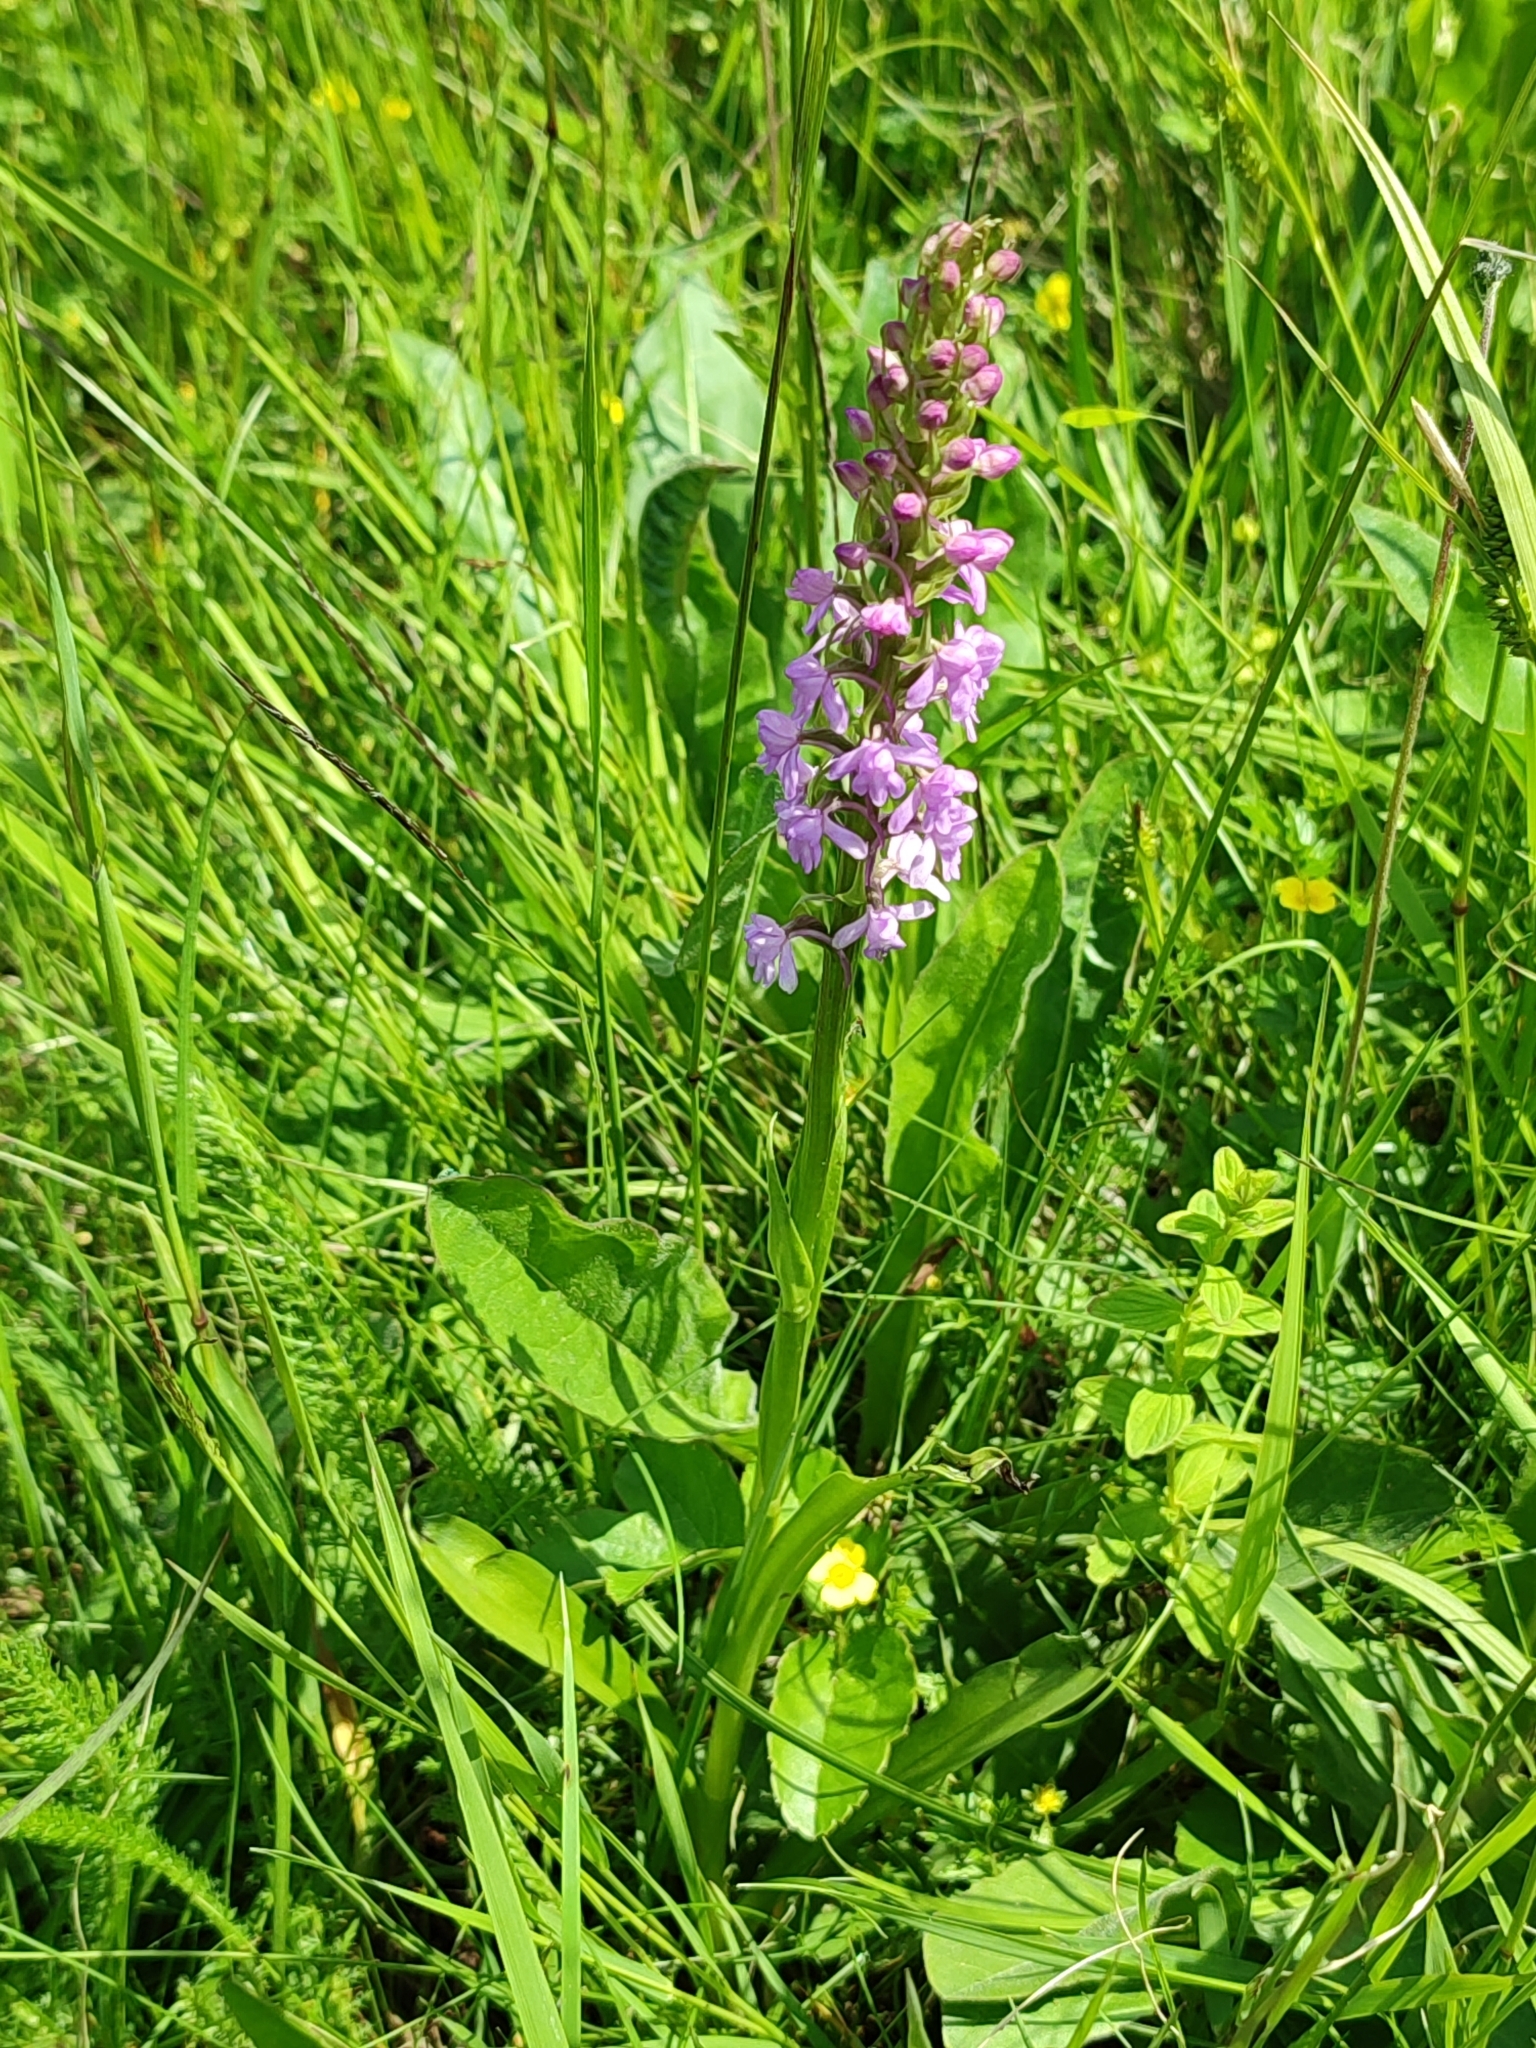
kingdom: Plantae
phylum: Tracheophyta
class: Liliopsida
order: Asparagales
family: Orchidaceae
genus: Gymnadenia
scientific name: Gymnadenia conopsea
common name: Fragrant orchid
